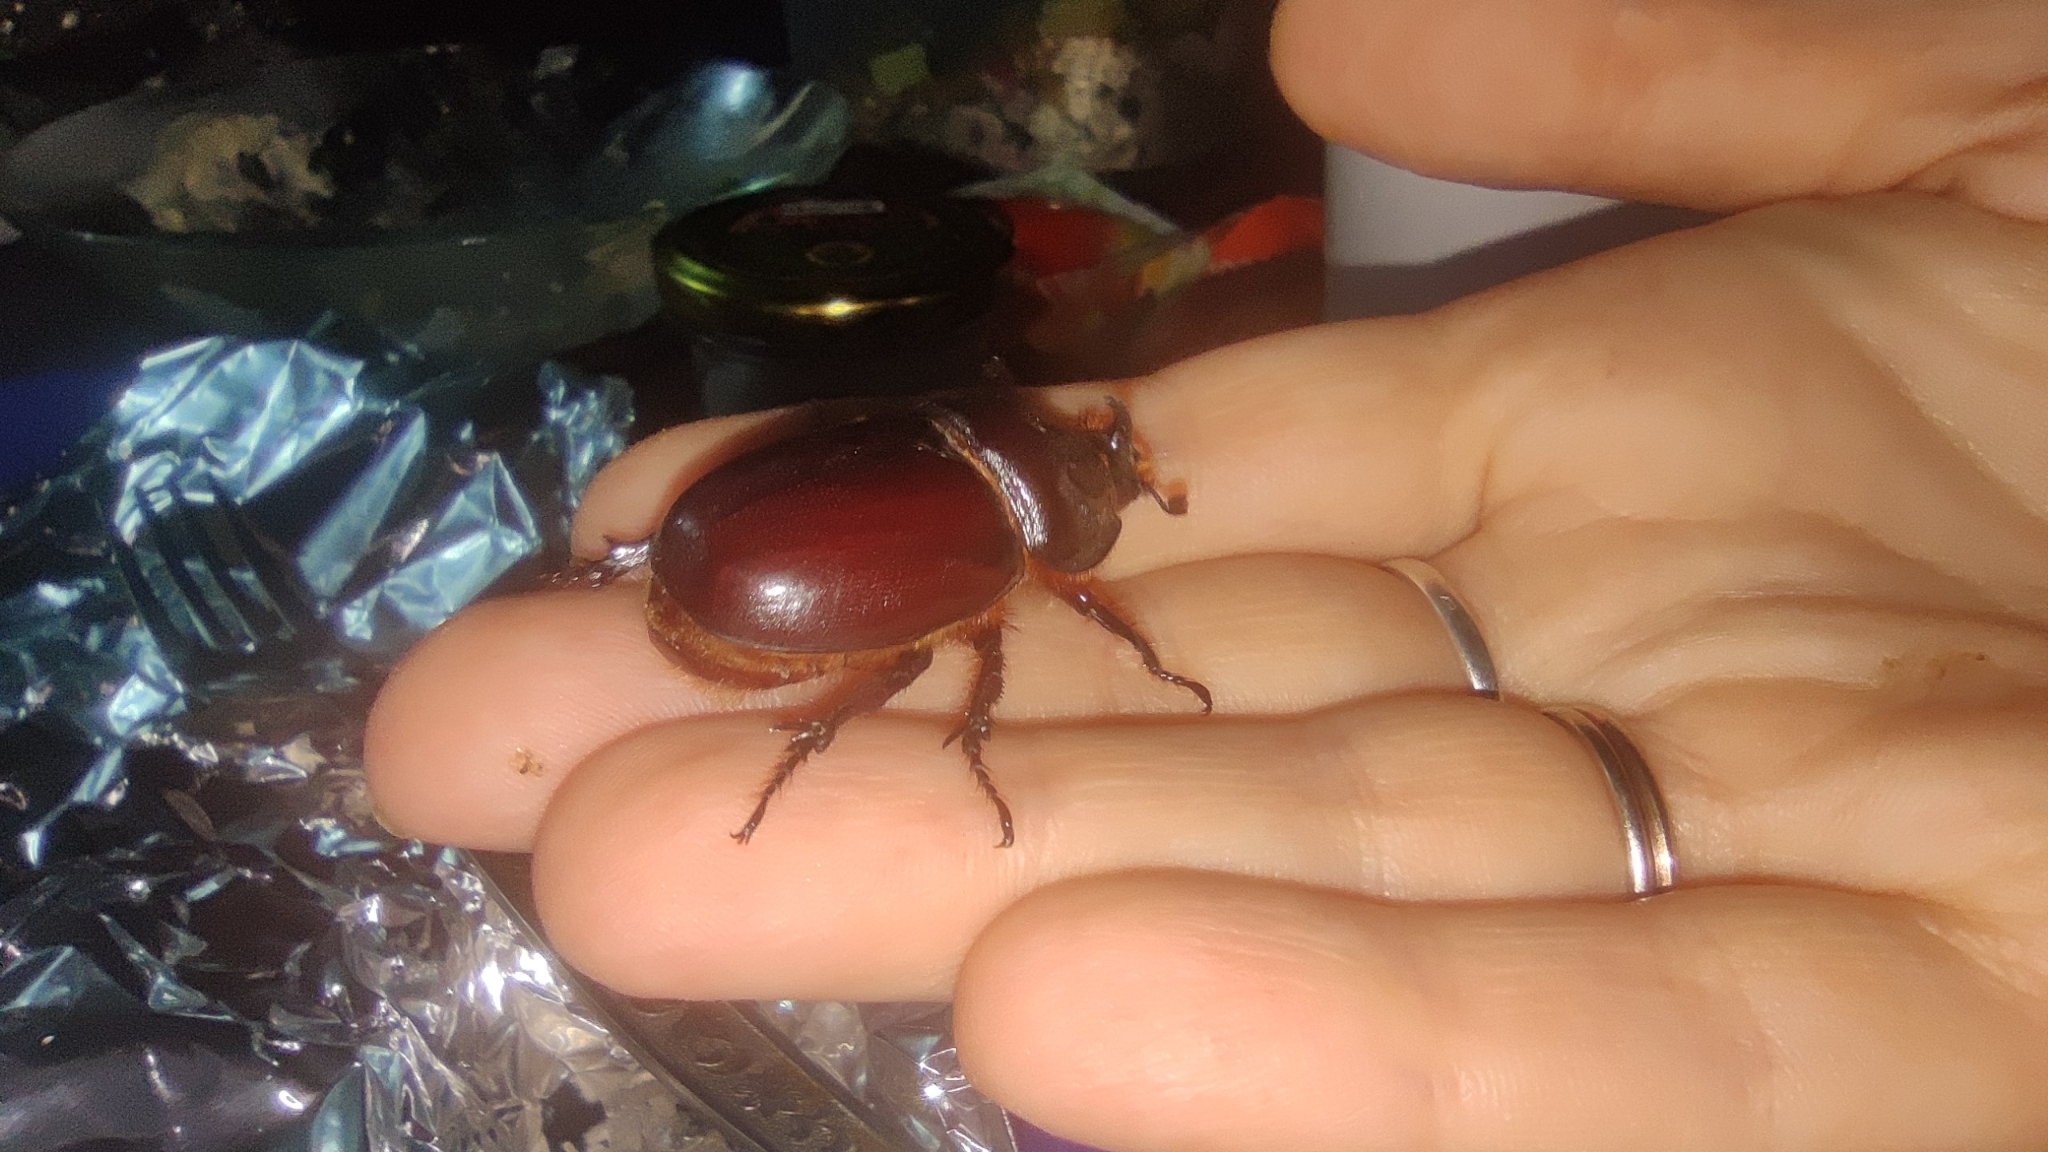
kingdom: Animalia
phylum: Arthropoda
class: Insecta
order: Coleoptera
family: Scarabaeidae
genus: Oryctes
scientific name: Oryctes nasicornis
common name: European rhinoceros beetle
